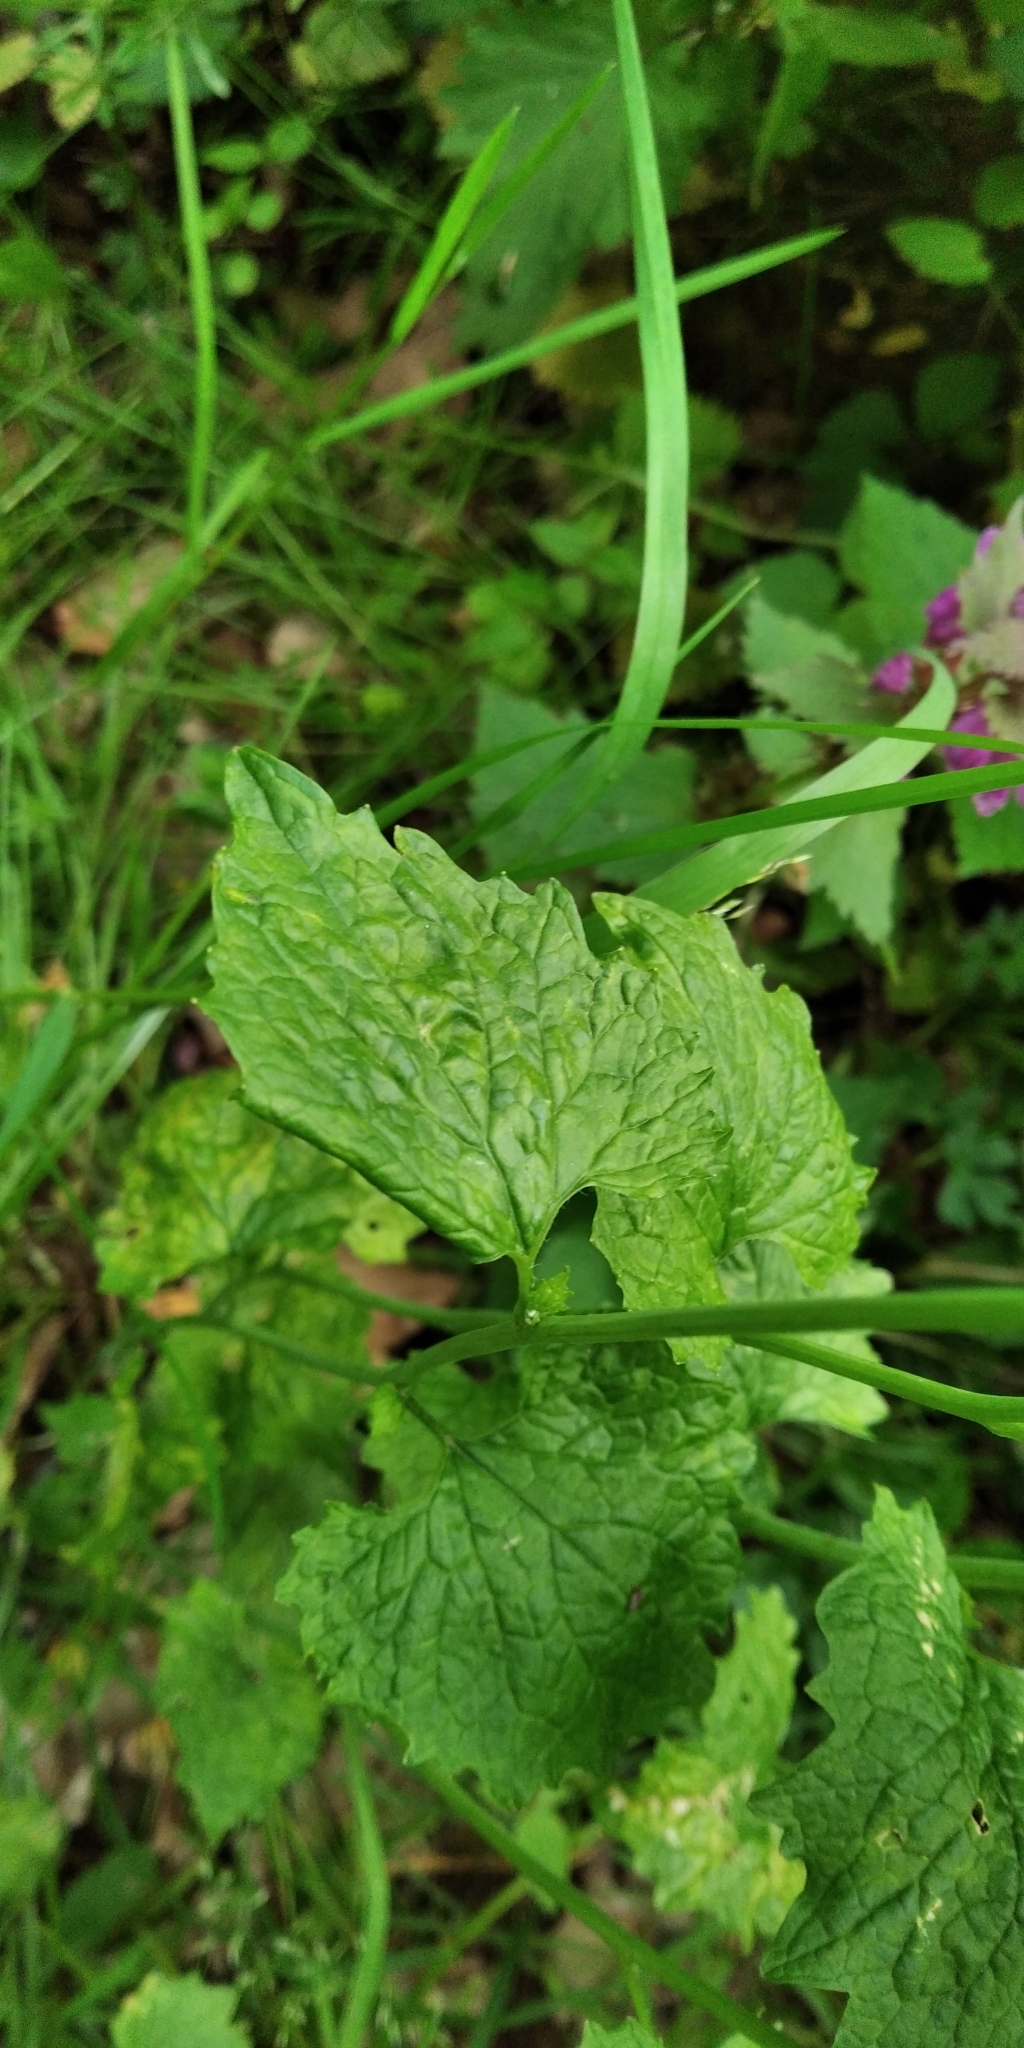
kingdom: Plantae
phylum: Tracheophyta
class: Magnoliopsida
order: Brassicales
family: Brassicaceae
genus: Alliaria
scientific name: Alliaria petiolata
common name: Garlic mustard
